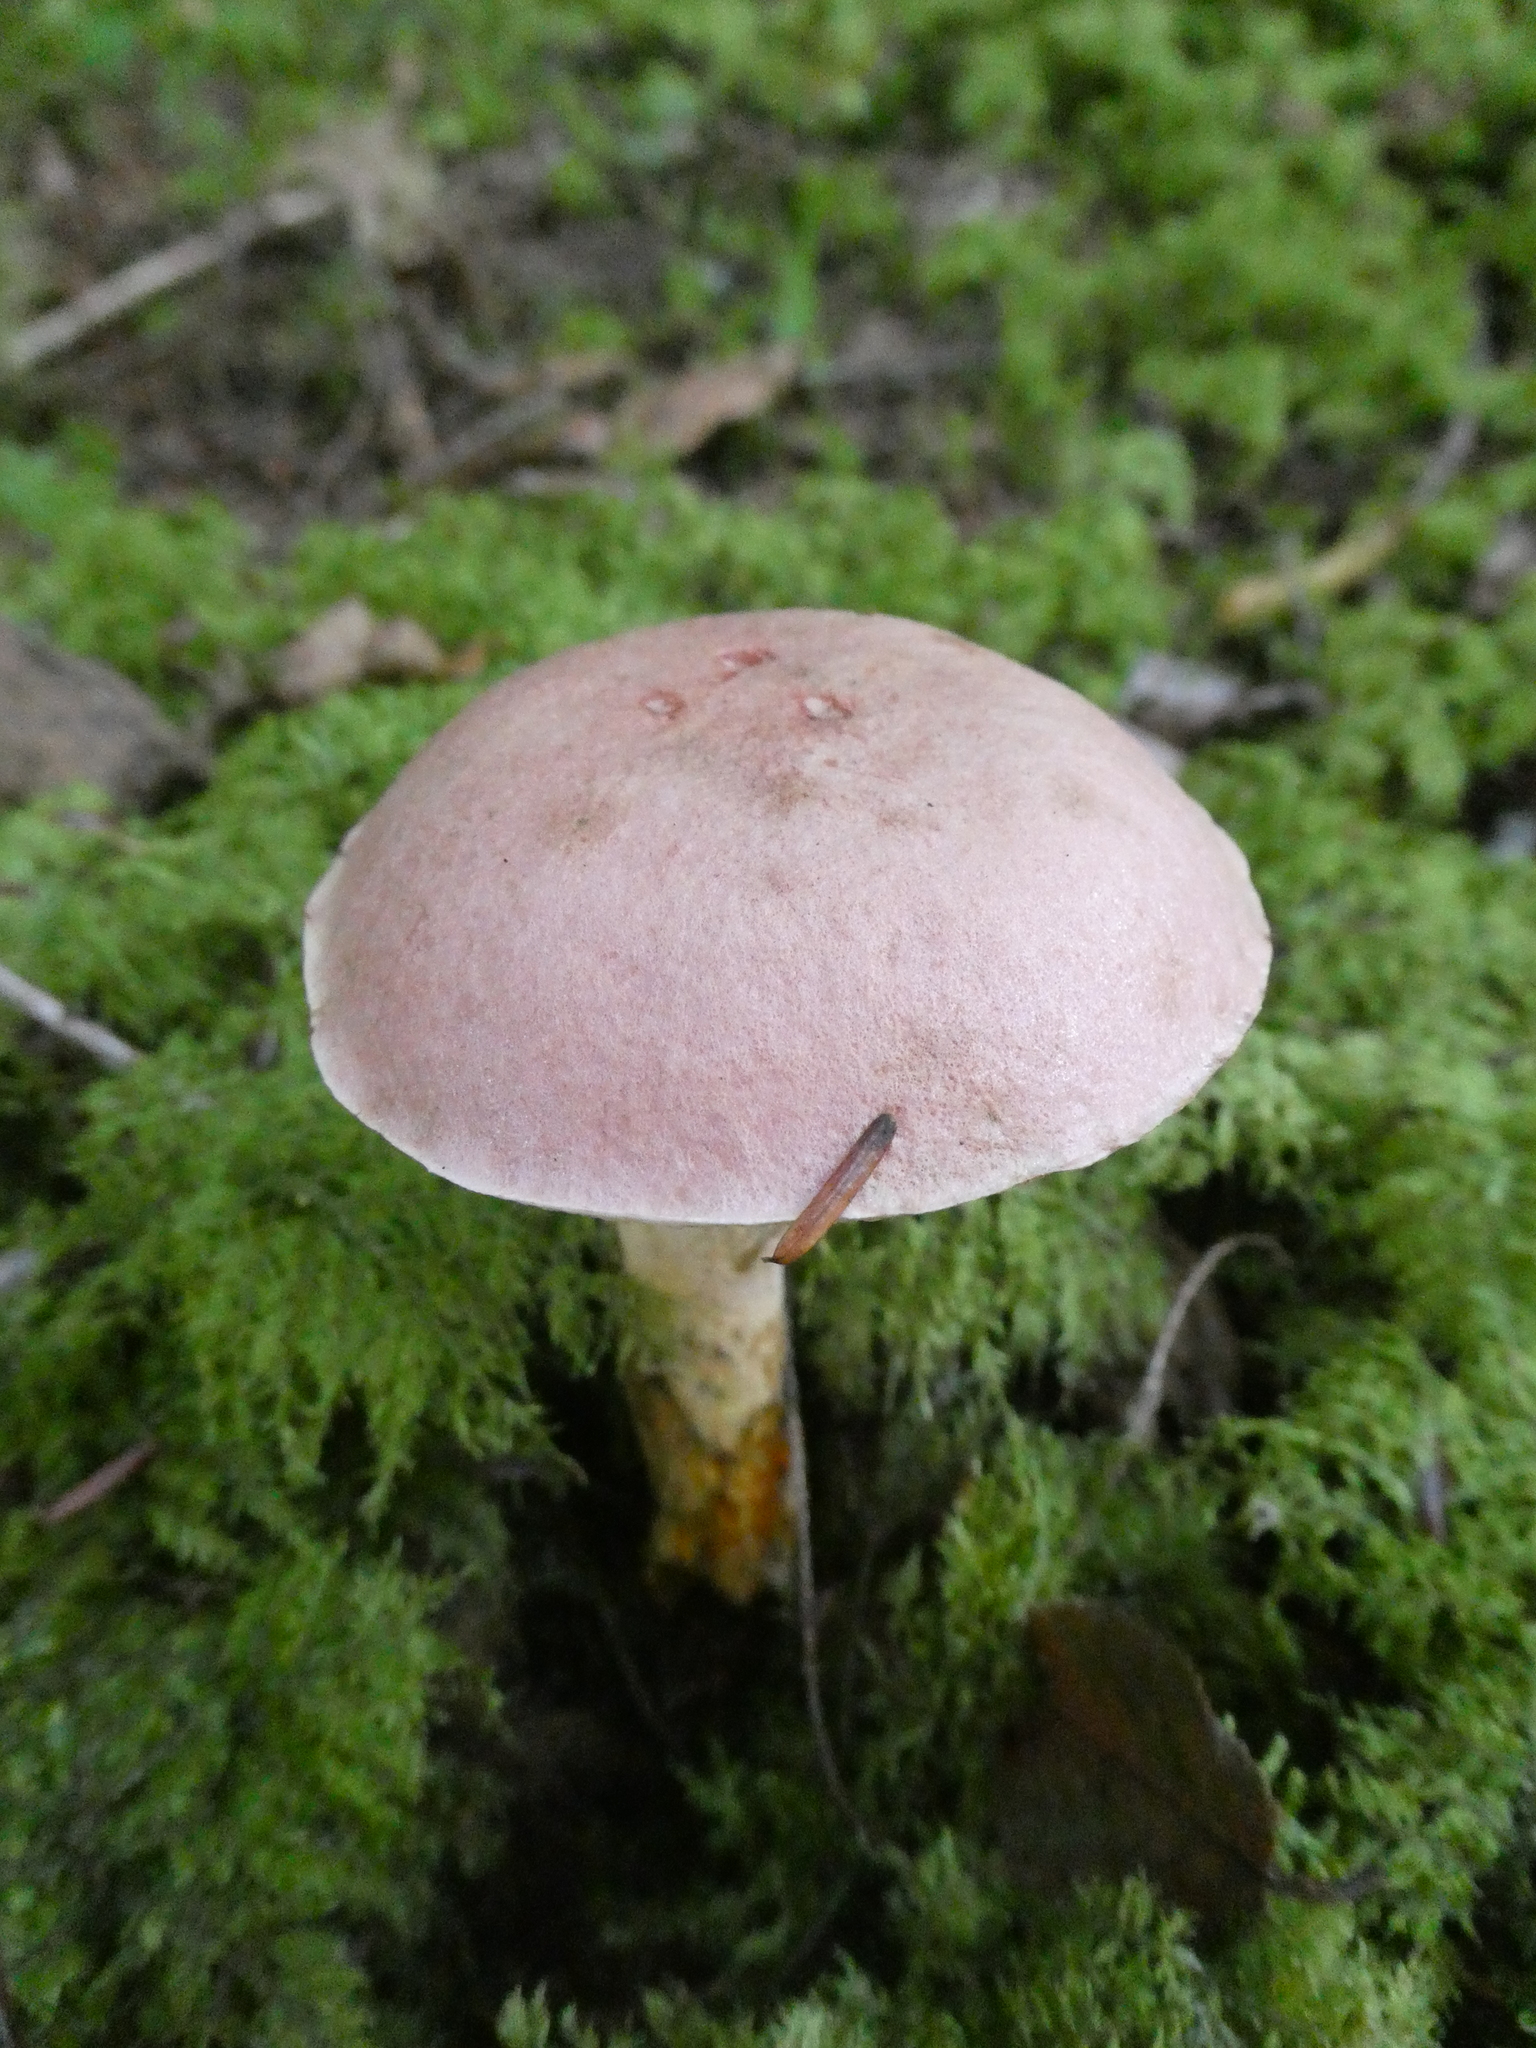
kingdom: Fungi
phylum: Basidiomycota
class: Agaricomycetes
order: Boletales
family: Boletaceae
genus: Harrya
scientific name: Harrya chromipes
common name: Chrome-footed bolete
